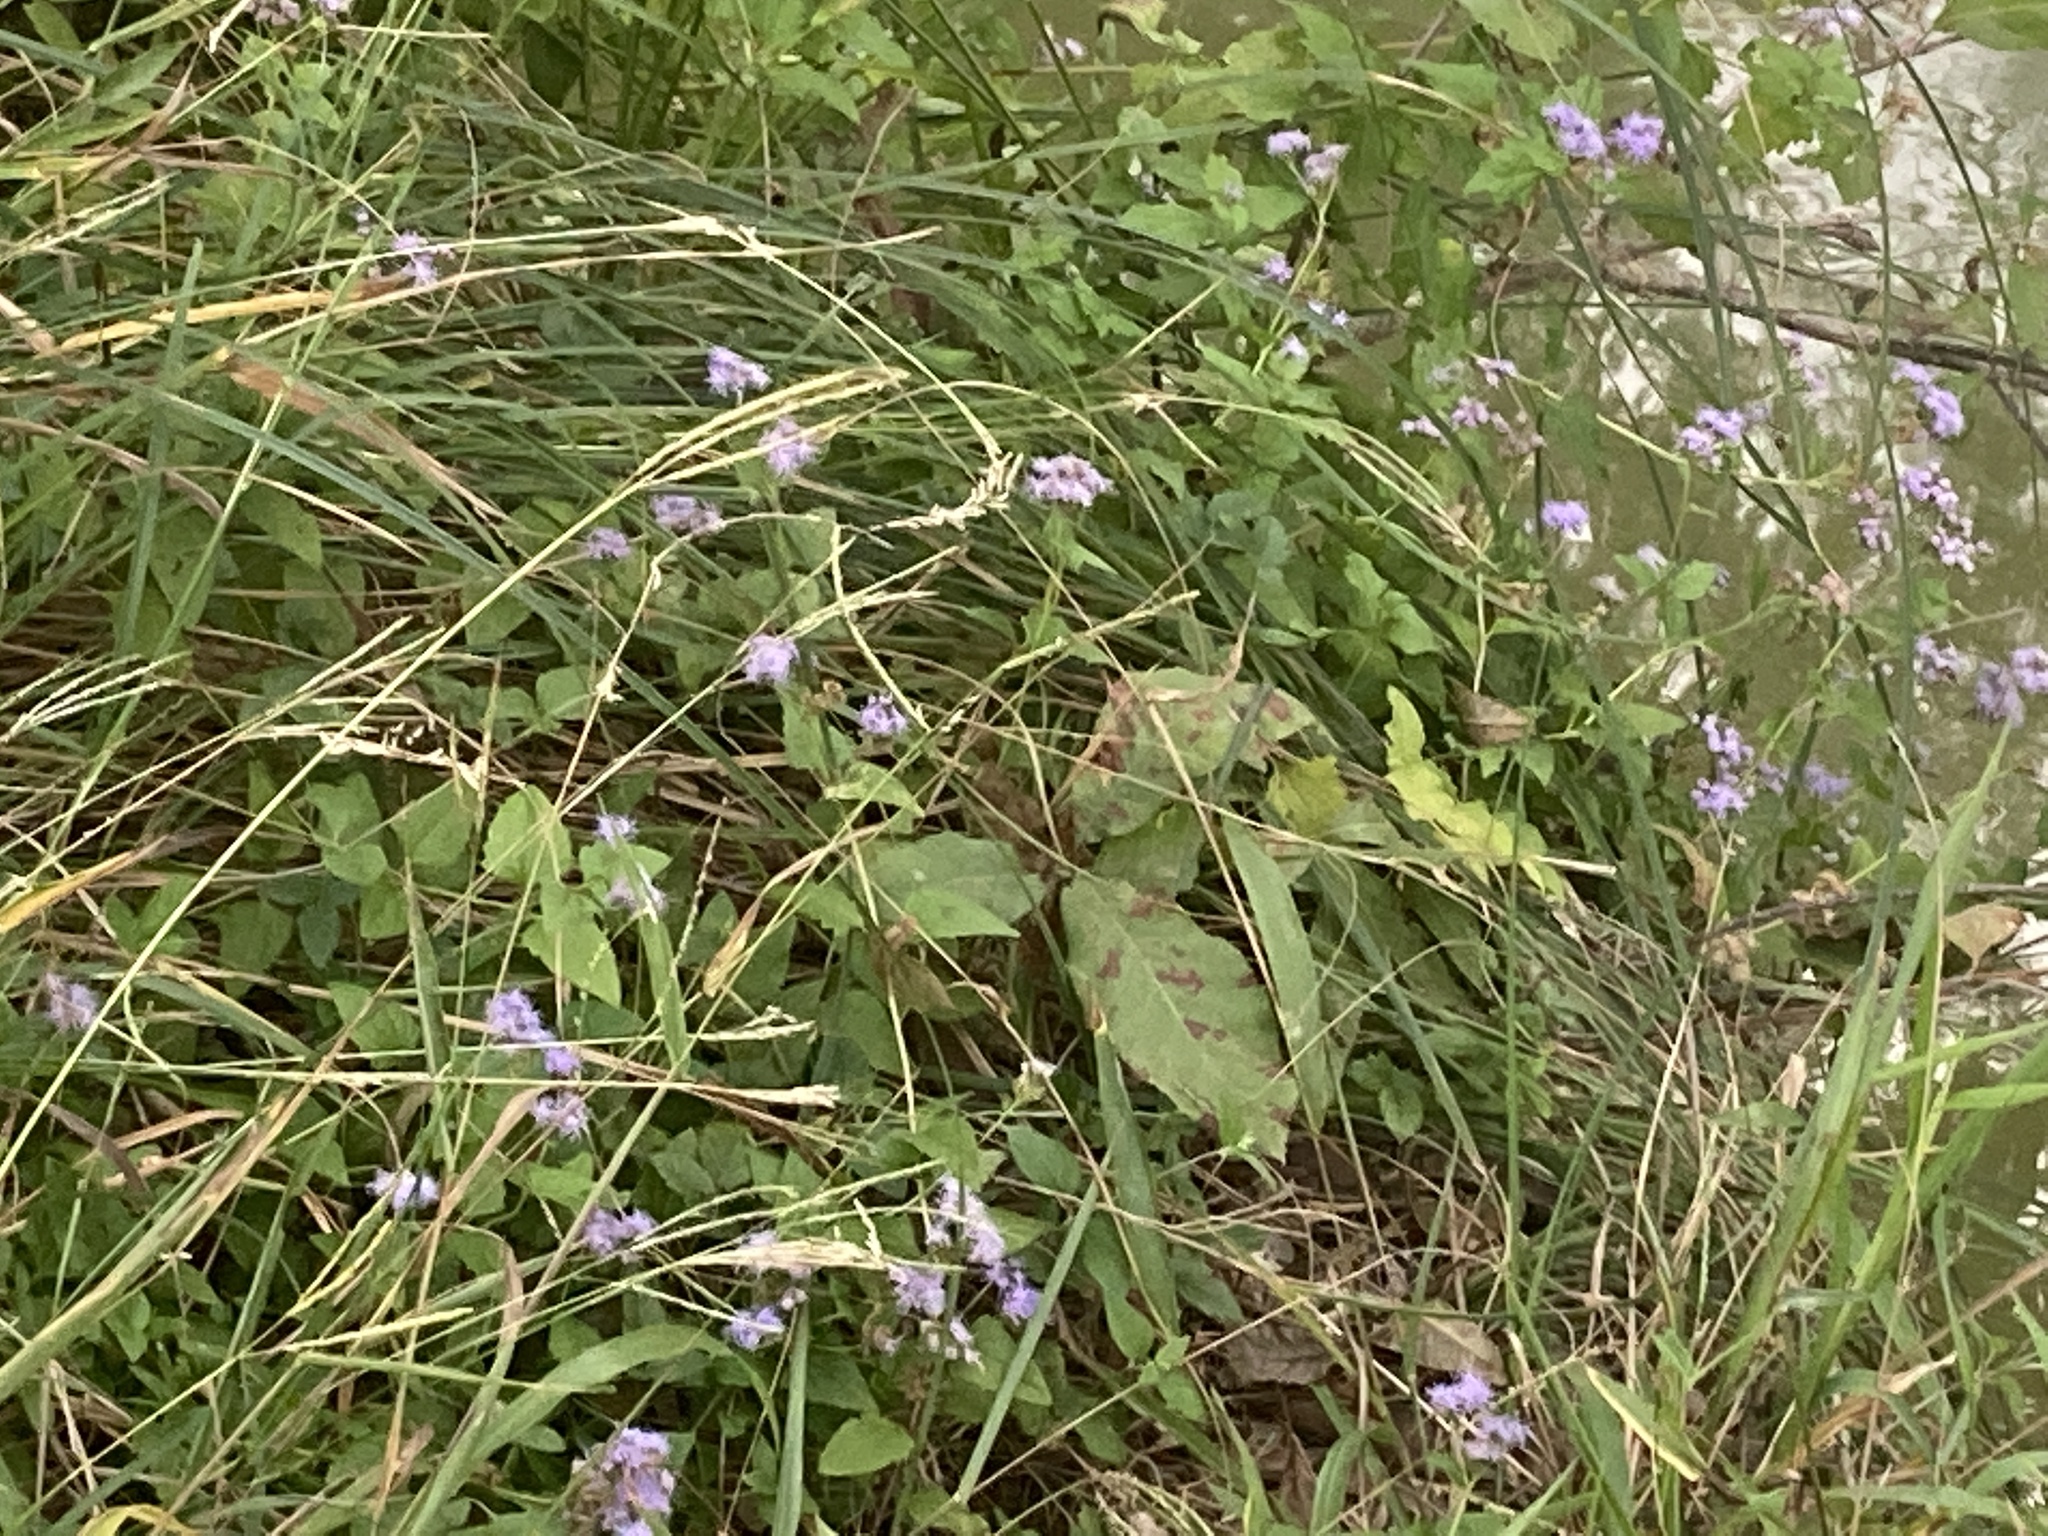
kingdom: Plantae
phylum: Tracheophyta
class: Magnoliopsida
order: Asterales
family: Asteraceae
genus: Conoclinium
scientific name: Conoclinium coelestinum
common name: Blue mistflower
